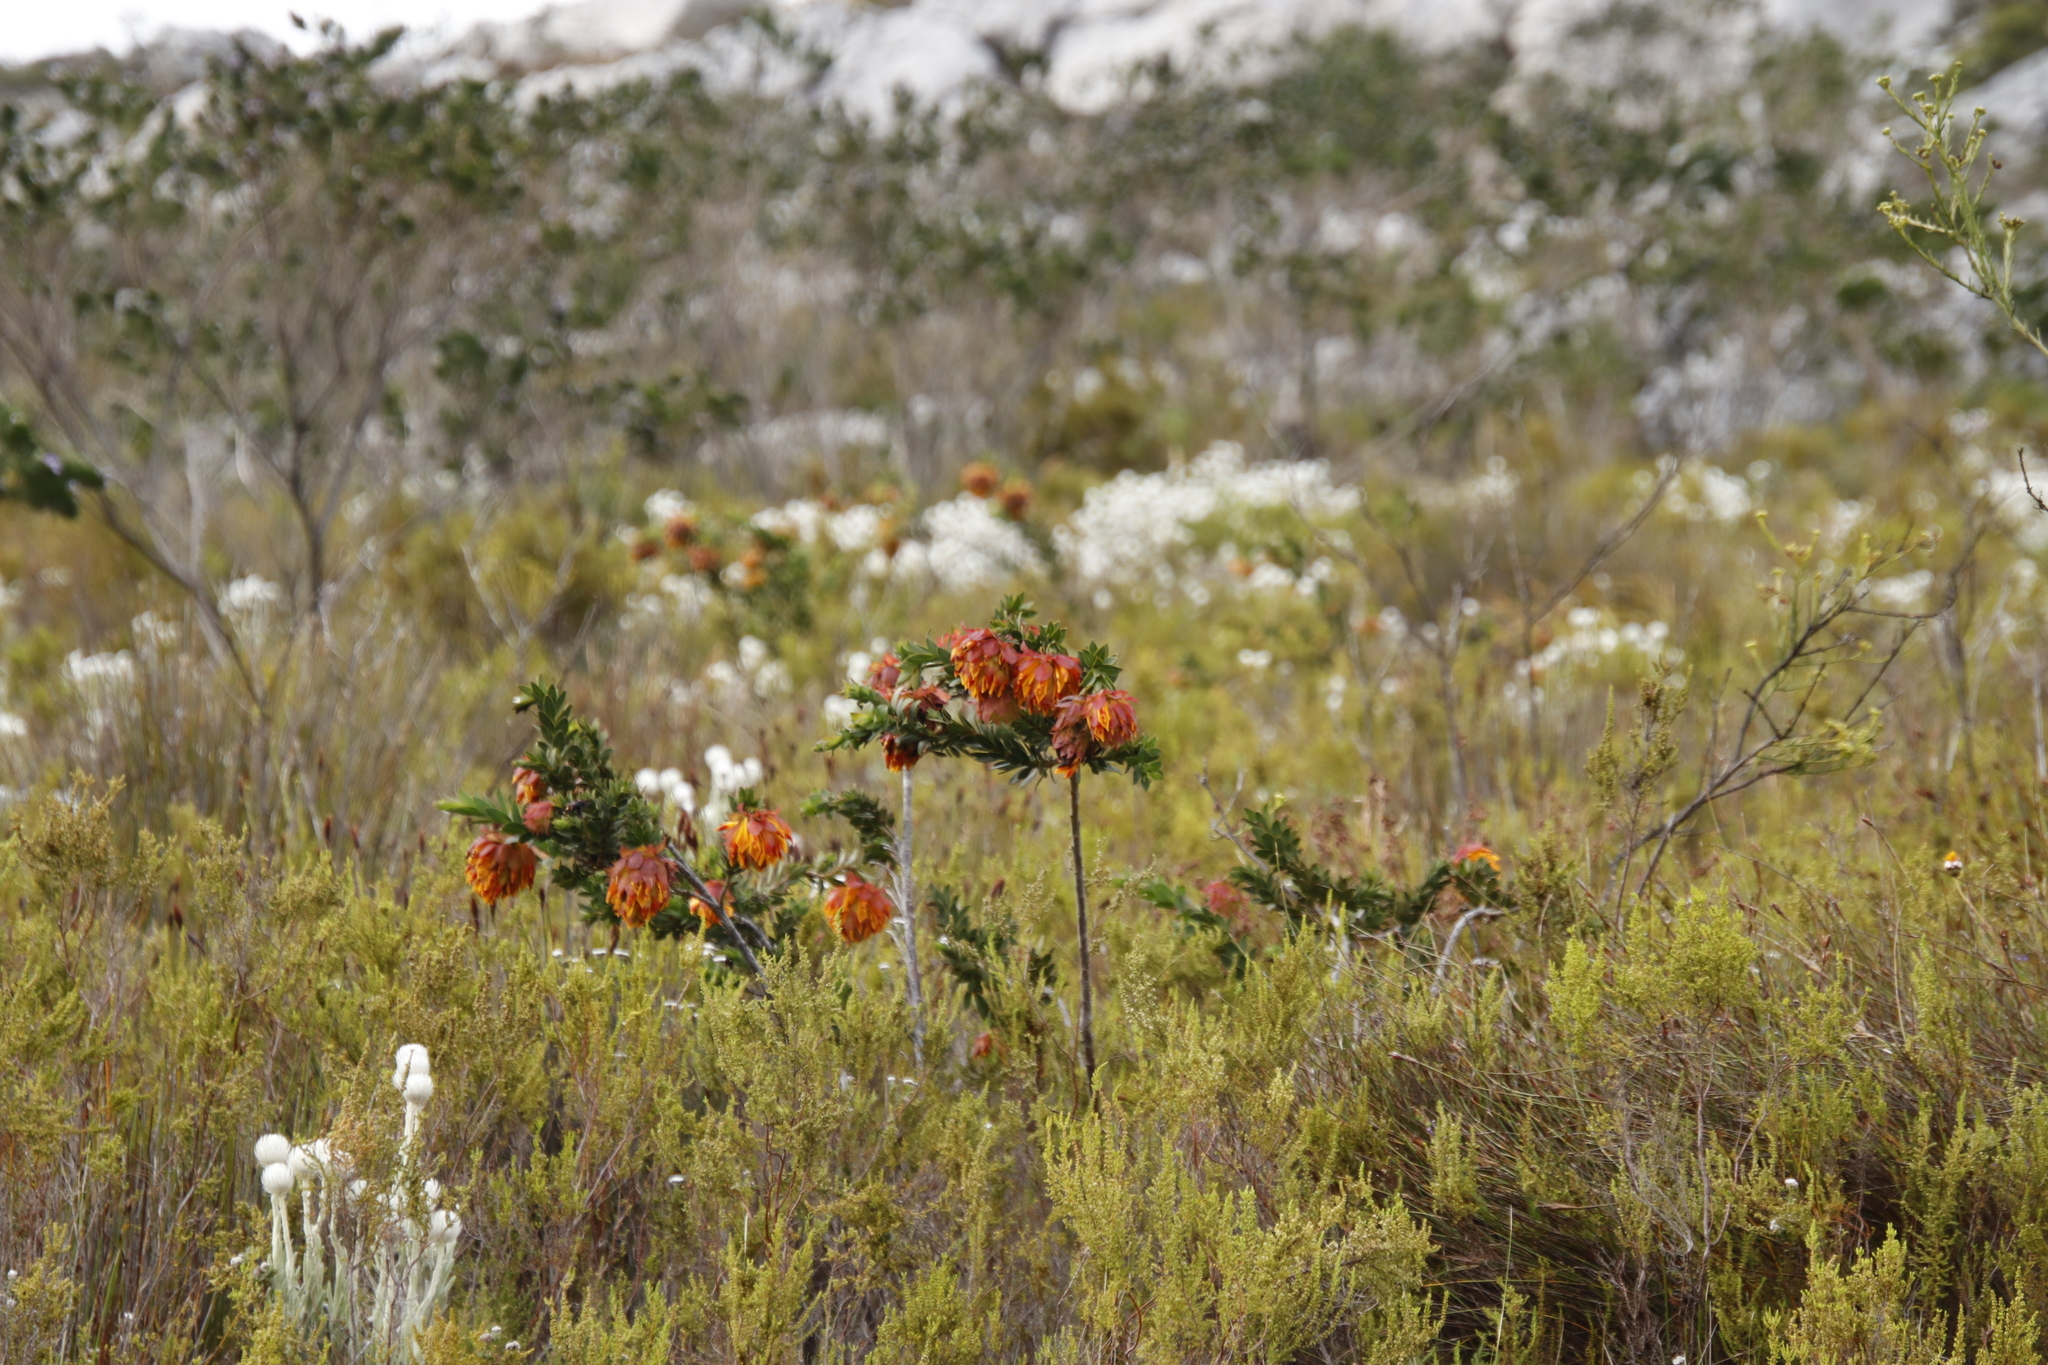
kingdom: Plantae
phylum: Tracheophyta
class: Magnoliopsida
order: Fabales
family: Fabaceae
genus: Liparia
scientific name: Liparia splendens
